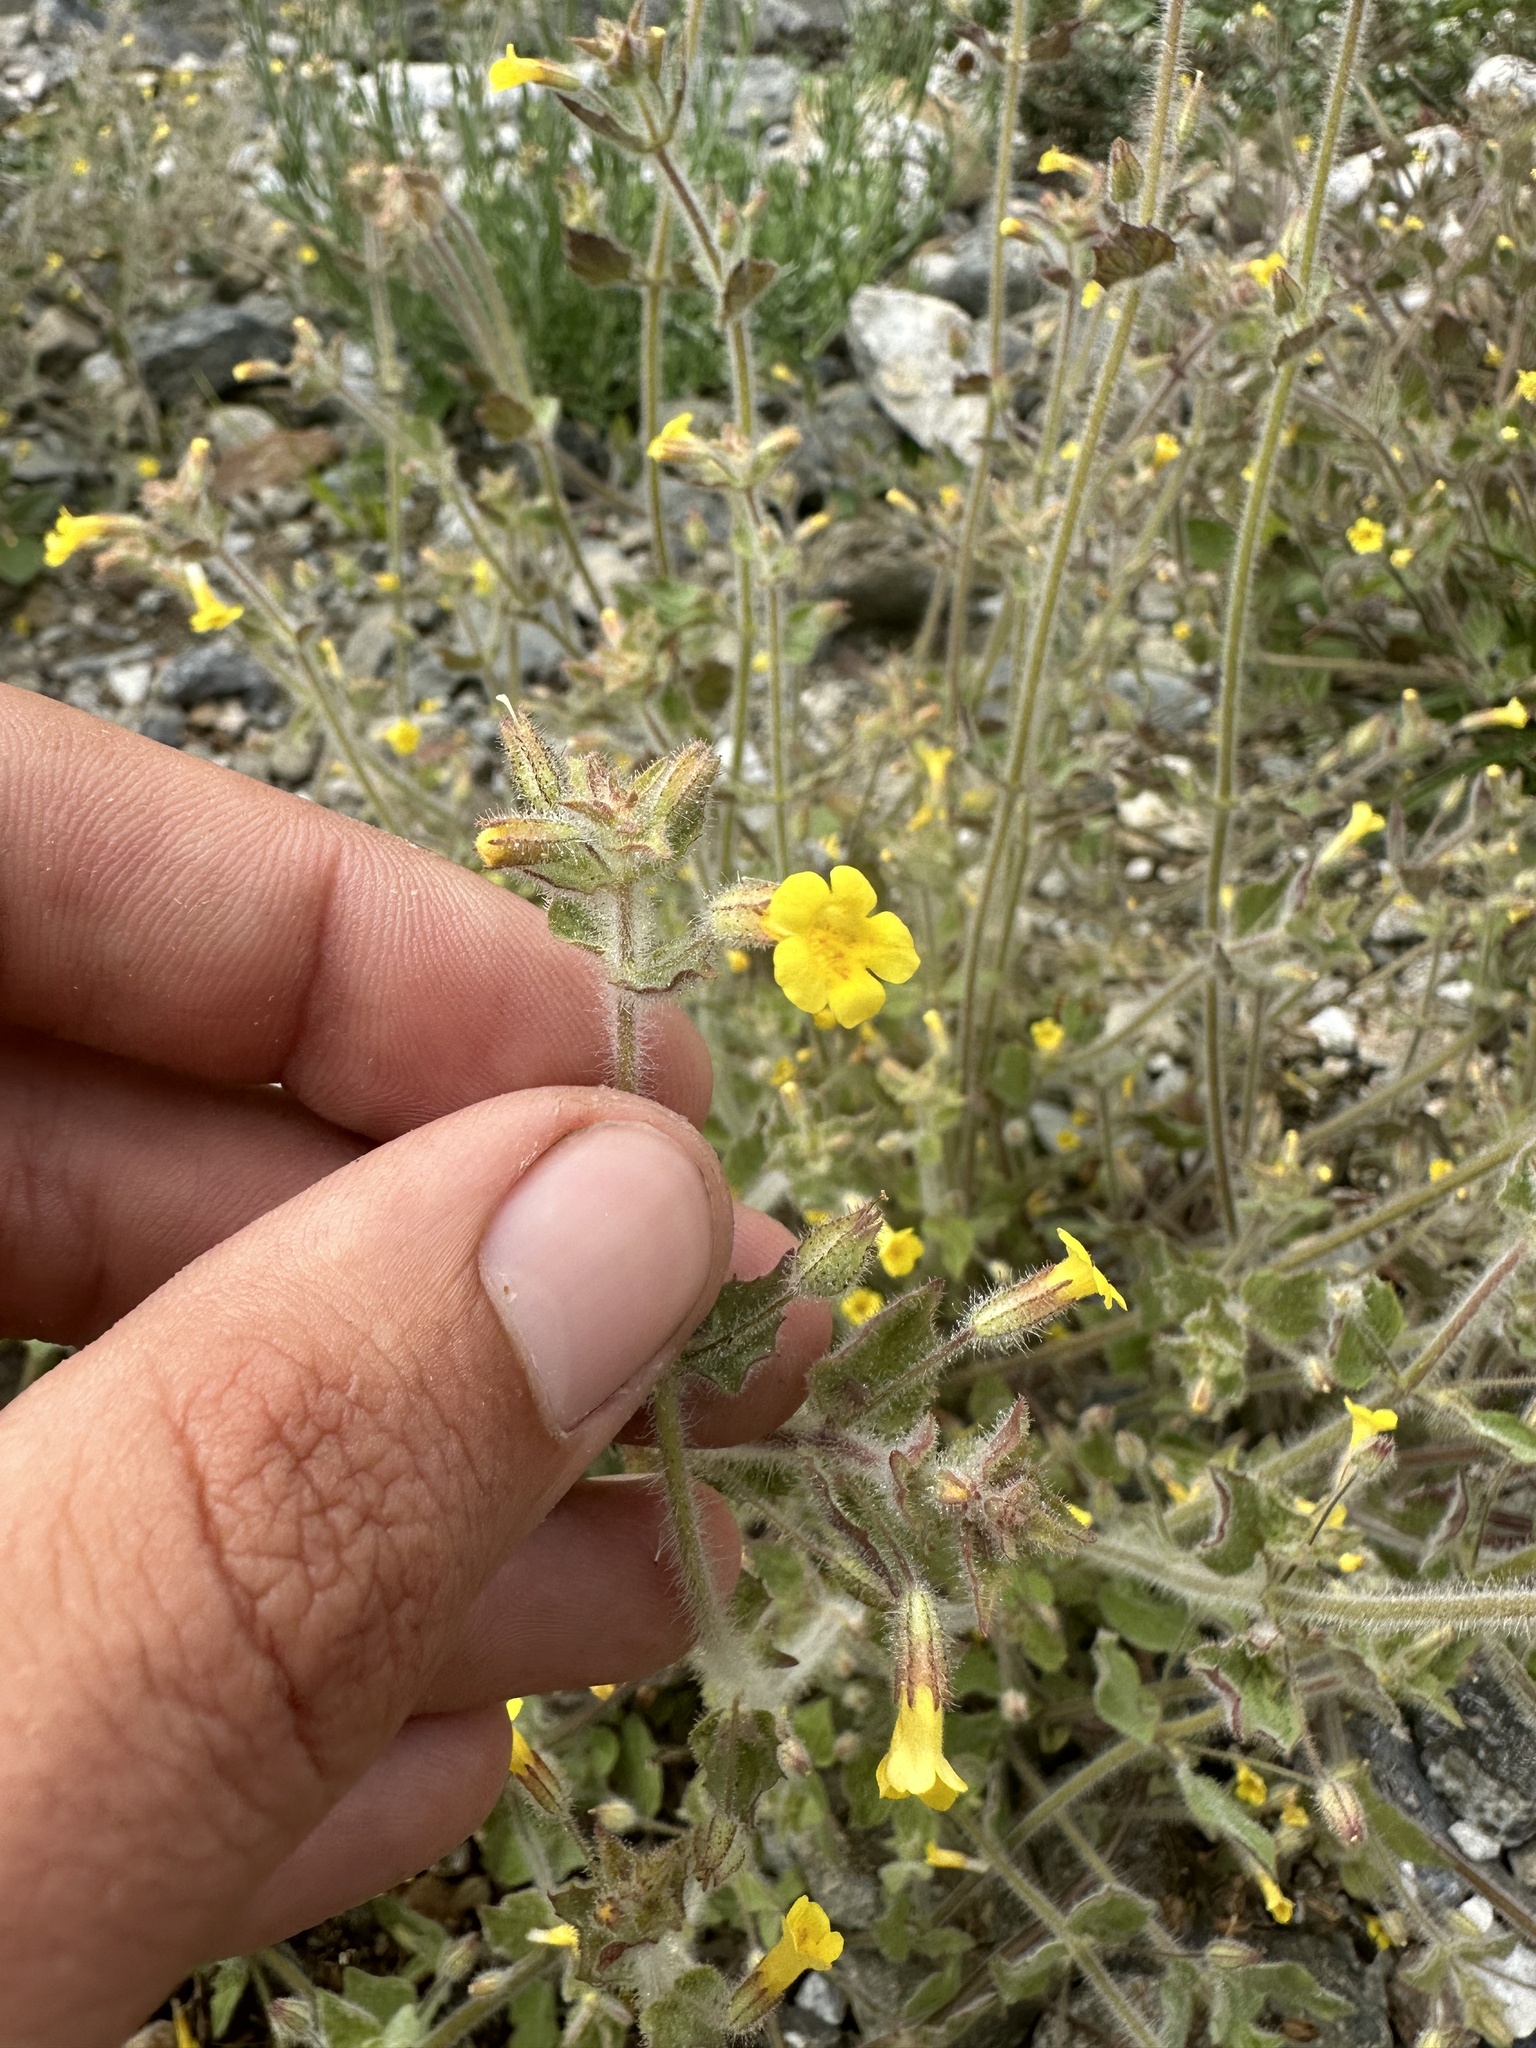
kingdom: Plantae
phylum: Tracheophyta
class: Magnoliopsida
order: Lamiales
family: Phrymaceae
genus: Erythranthe
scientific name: Erythranthe floribunda
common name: Floriferous monkeyflower
